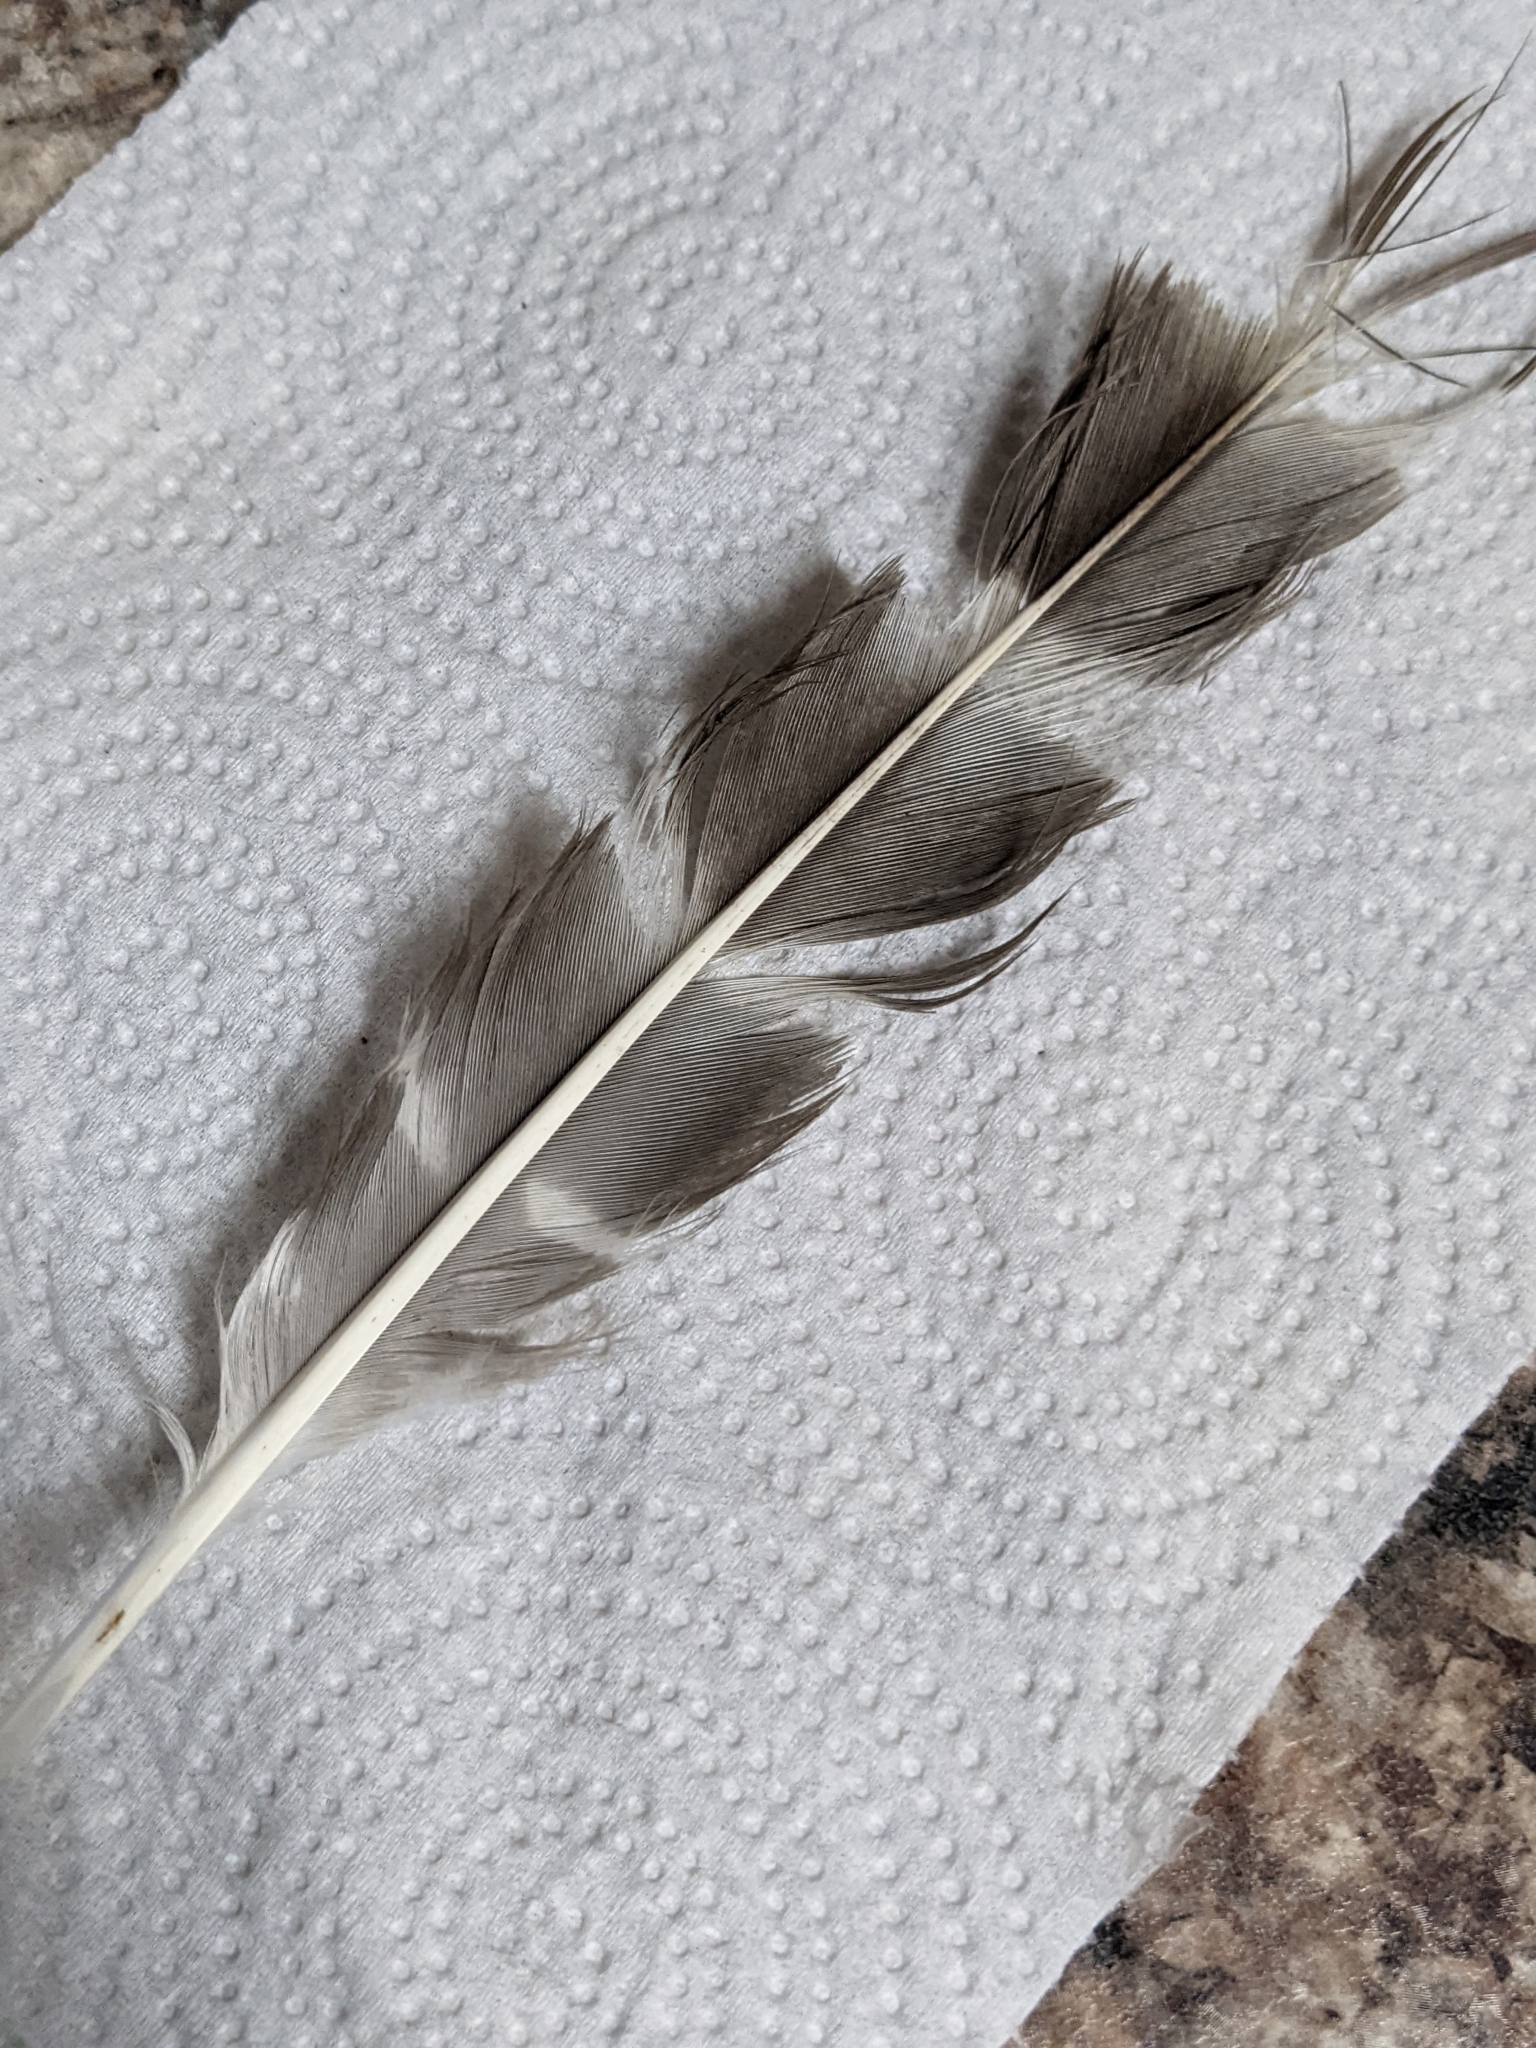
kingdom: Animalia
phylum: Chordata
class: Aves
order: Accipitriformes
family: Accipitridae
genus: Buteo
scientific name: Buteo lineatus
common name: Red-shouldered hawk
